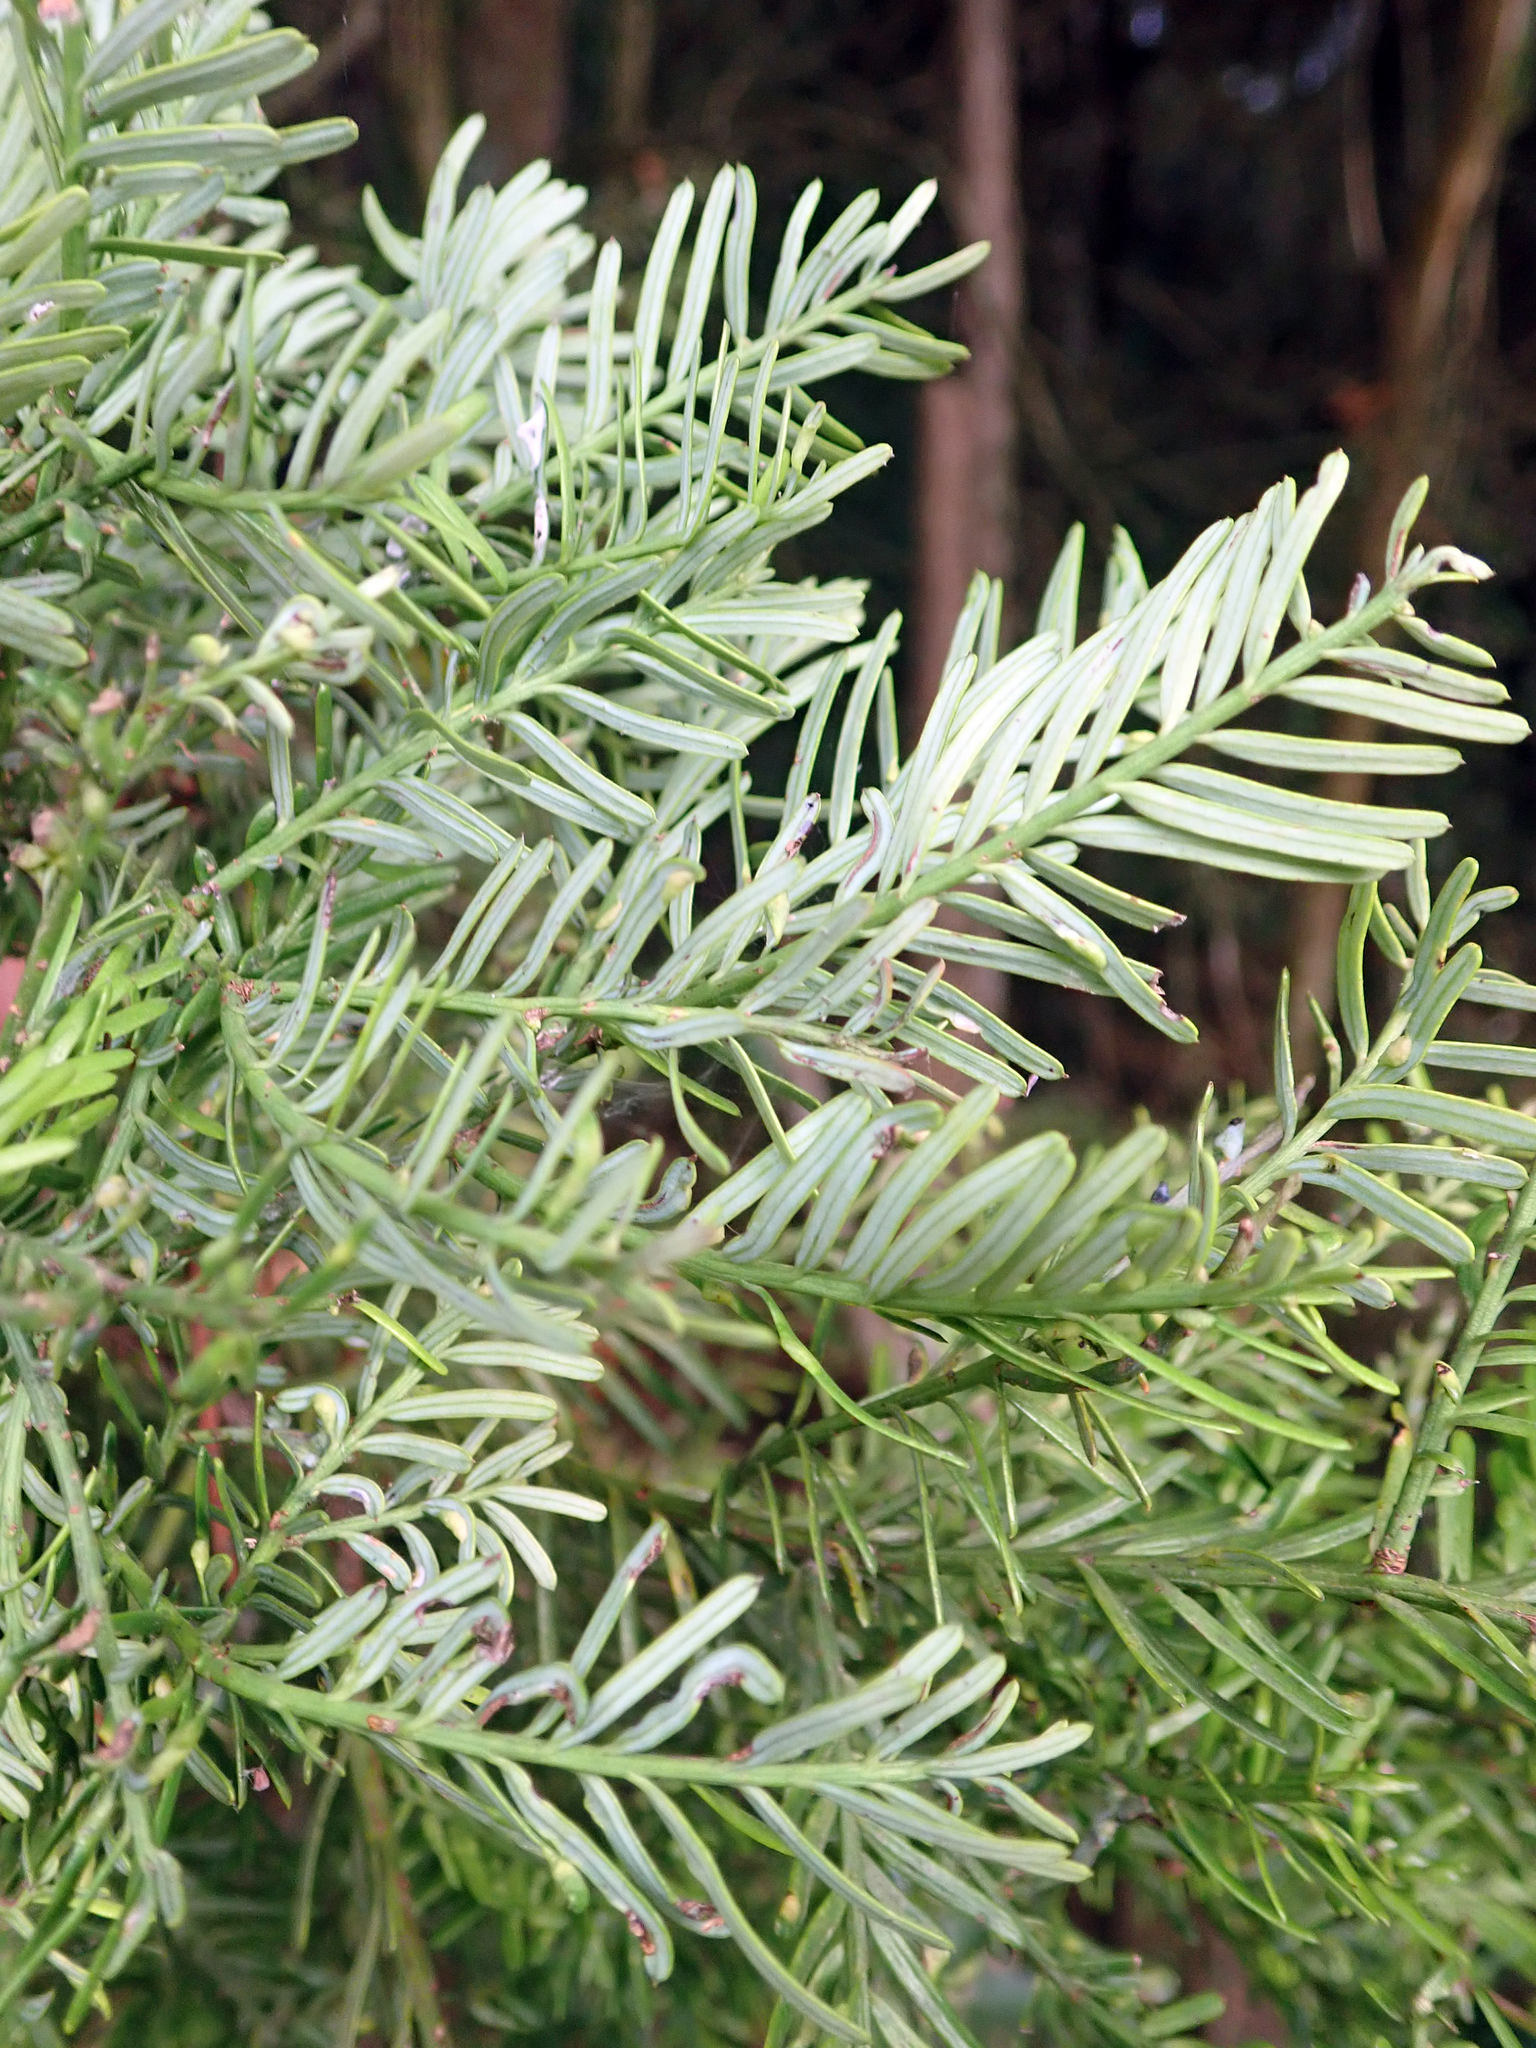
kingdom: Plantae
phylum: Tracheophyta
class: Pinopsida
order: Pinales
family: Podocarpaceae
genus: Prumnopitys
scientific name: Prumnopitys taxifolia
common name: Matai
